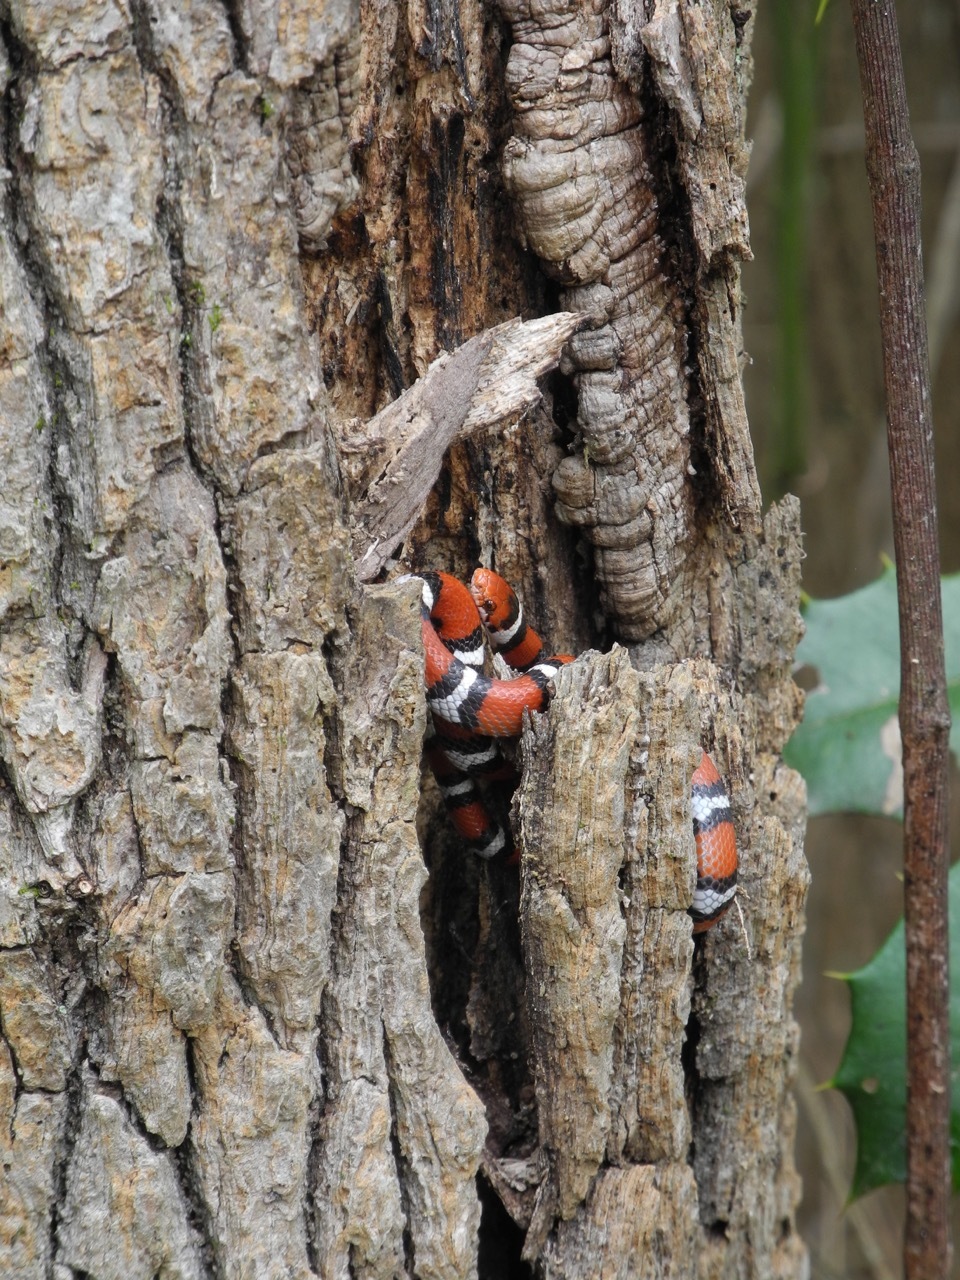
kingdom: Animalia
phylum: Chordata
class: Squamata
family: Colubridae
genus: Lampropeltis
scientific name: Lampropeltis elapsoides
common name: Scarlet kingsnake
